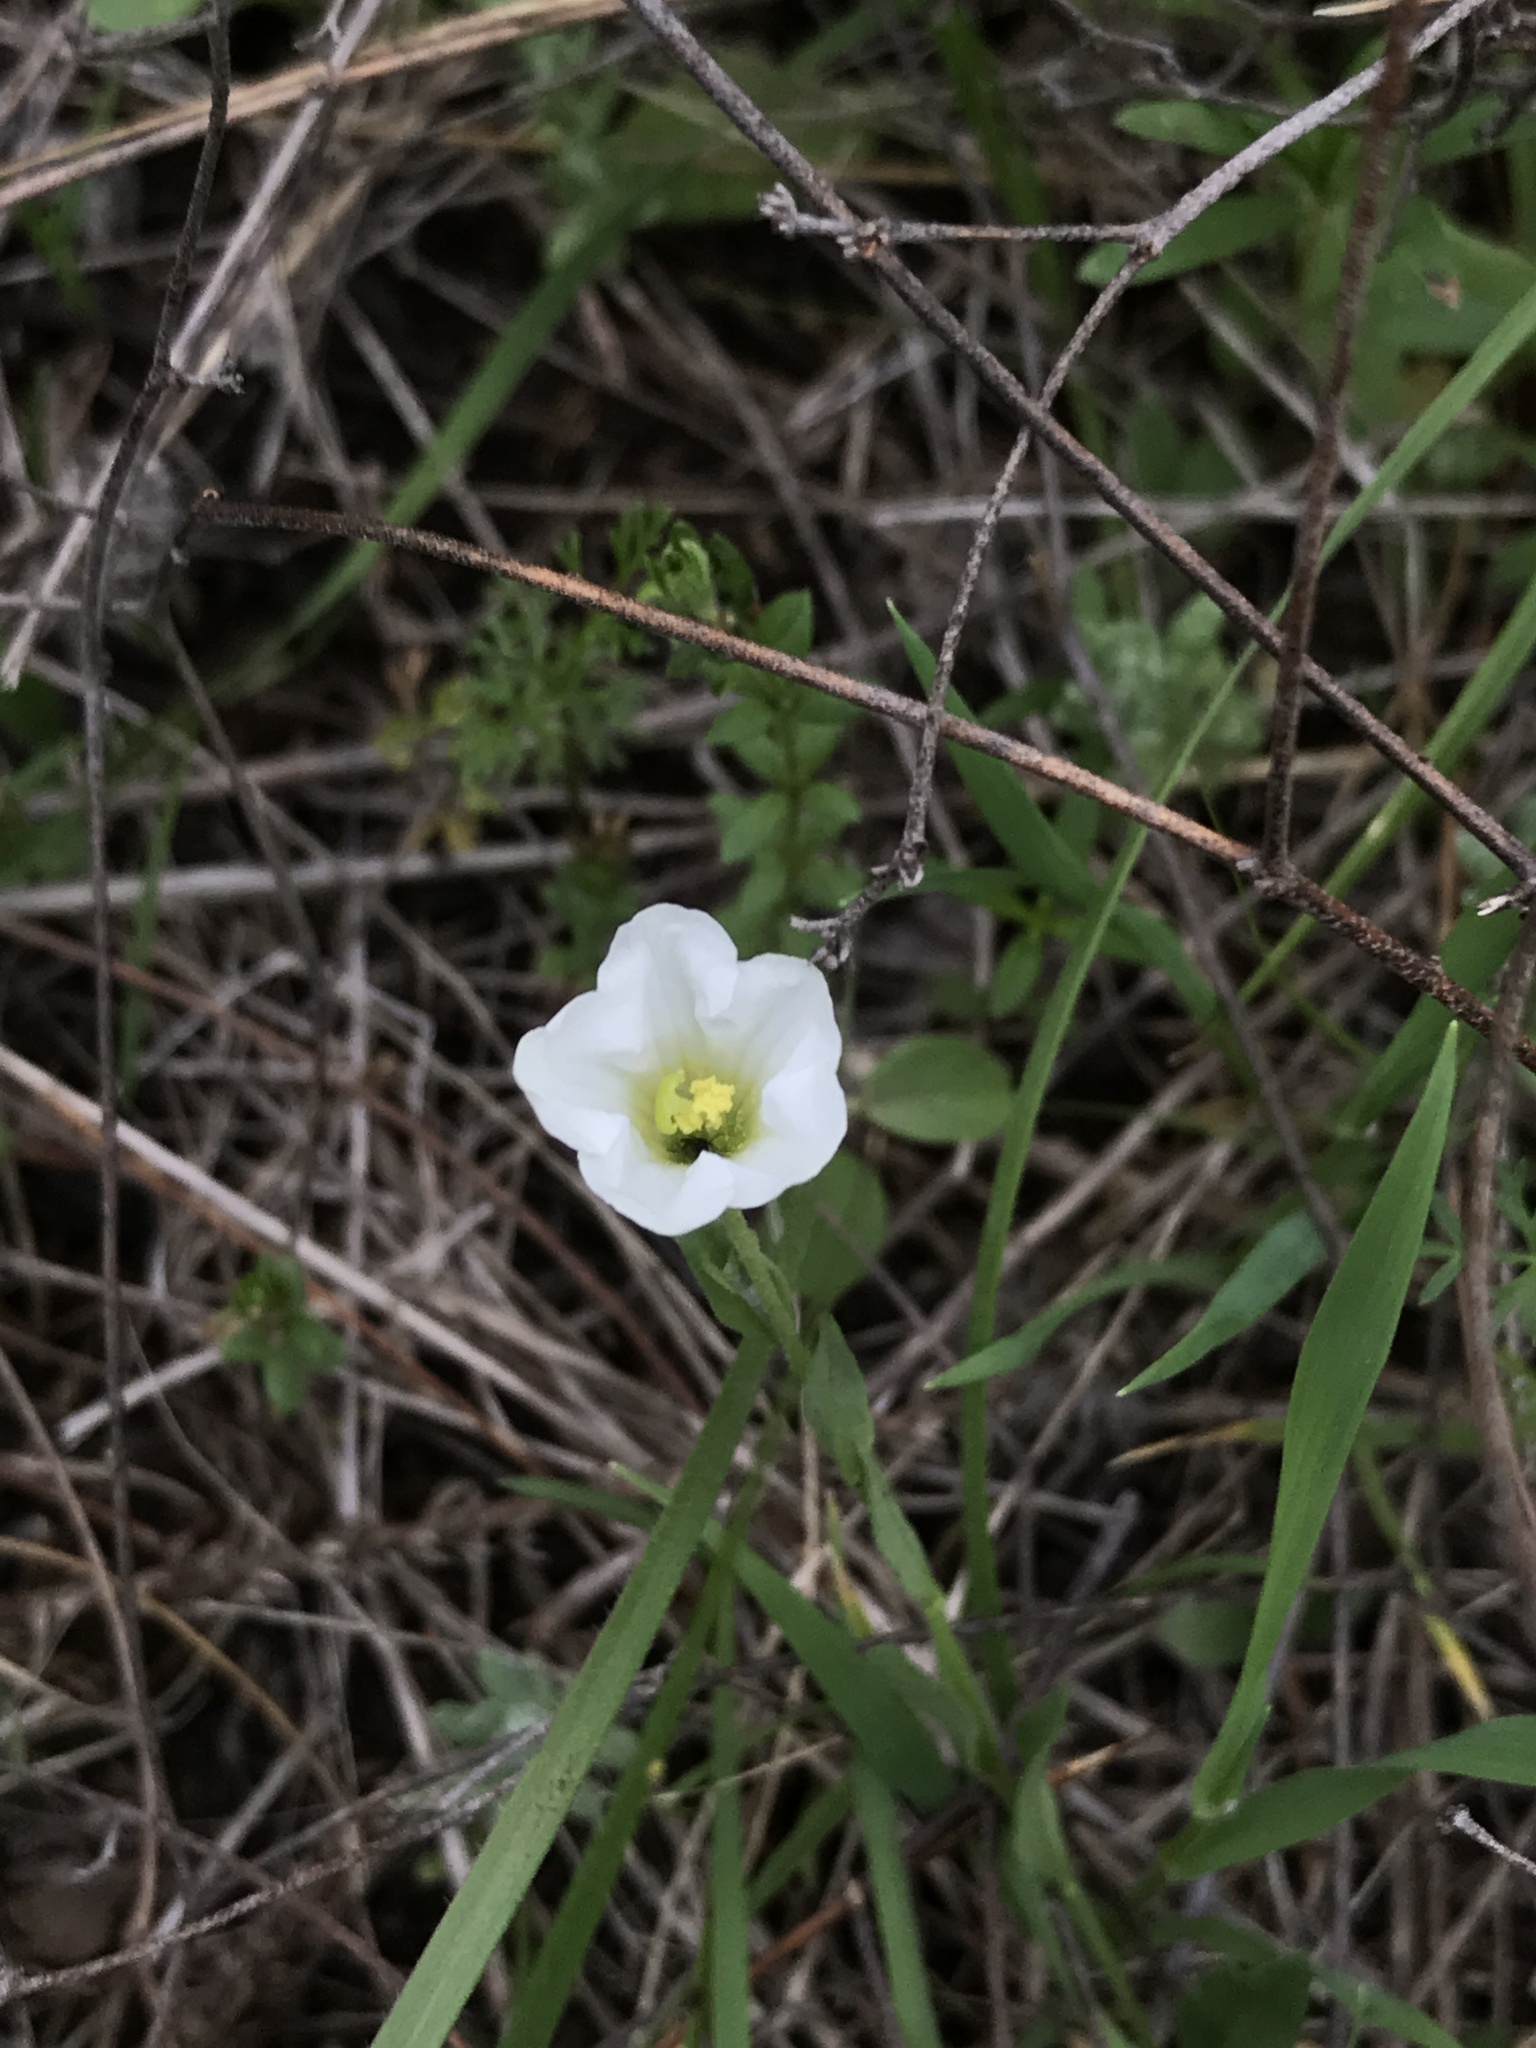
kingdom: Plantae
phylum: Tracheophyta
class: Magnoliopsida
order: Solanales
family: Solanaceae
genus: Salpiglossis
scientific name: Salpiglossis erecta
